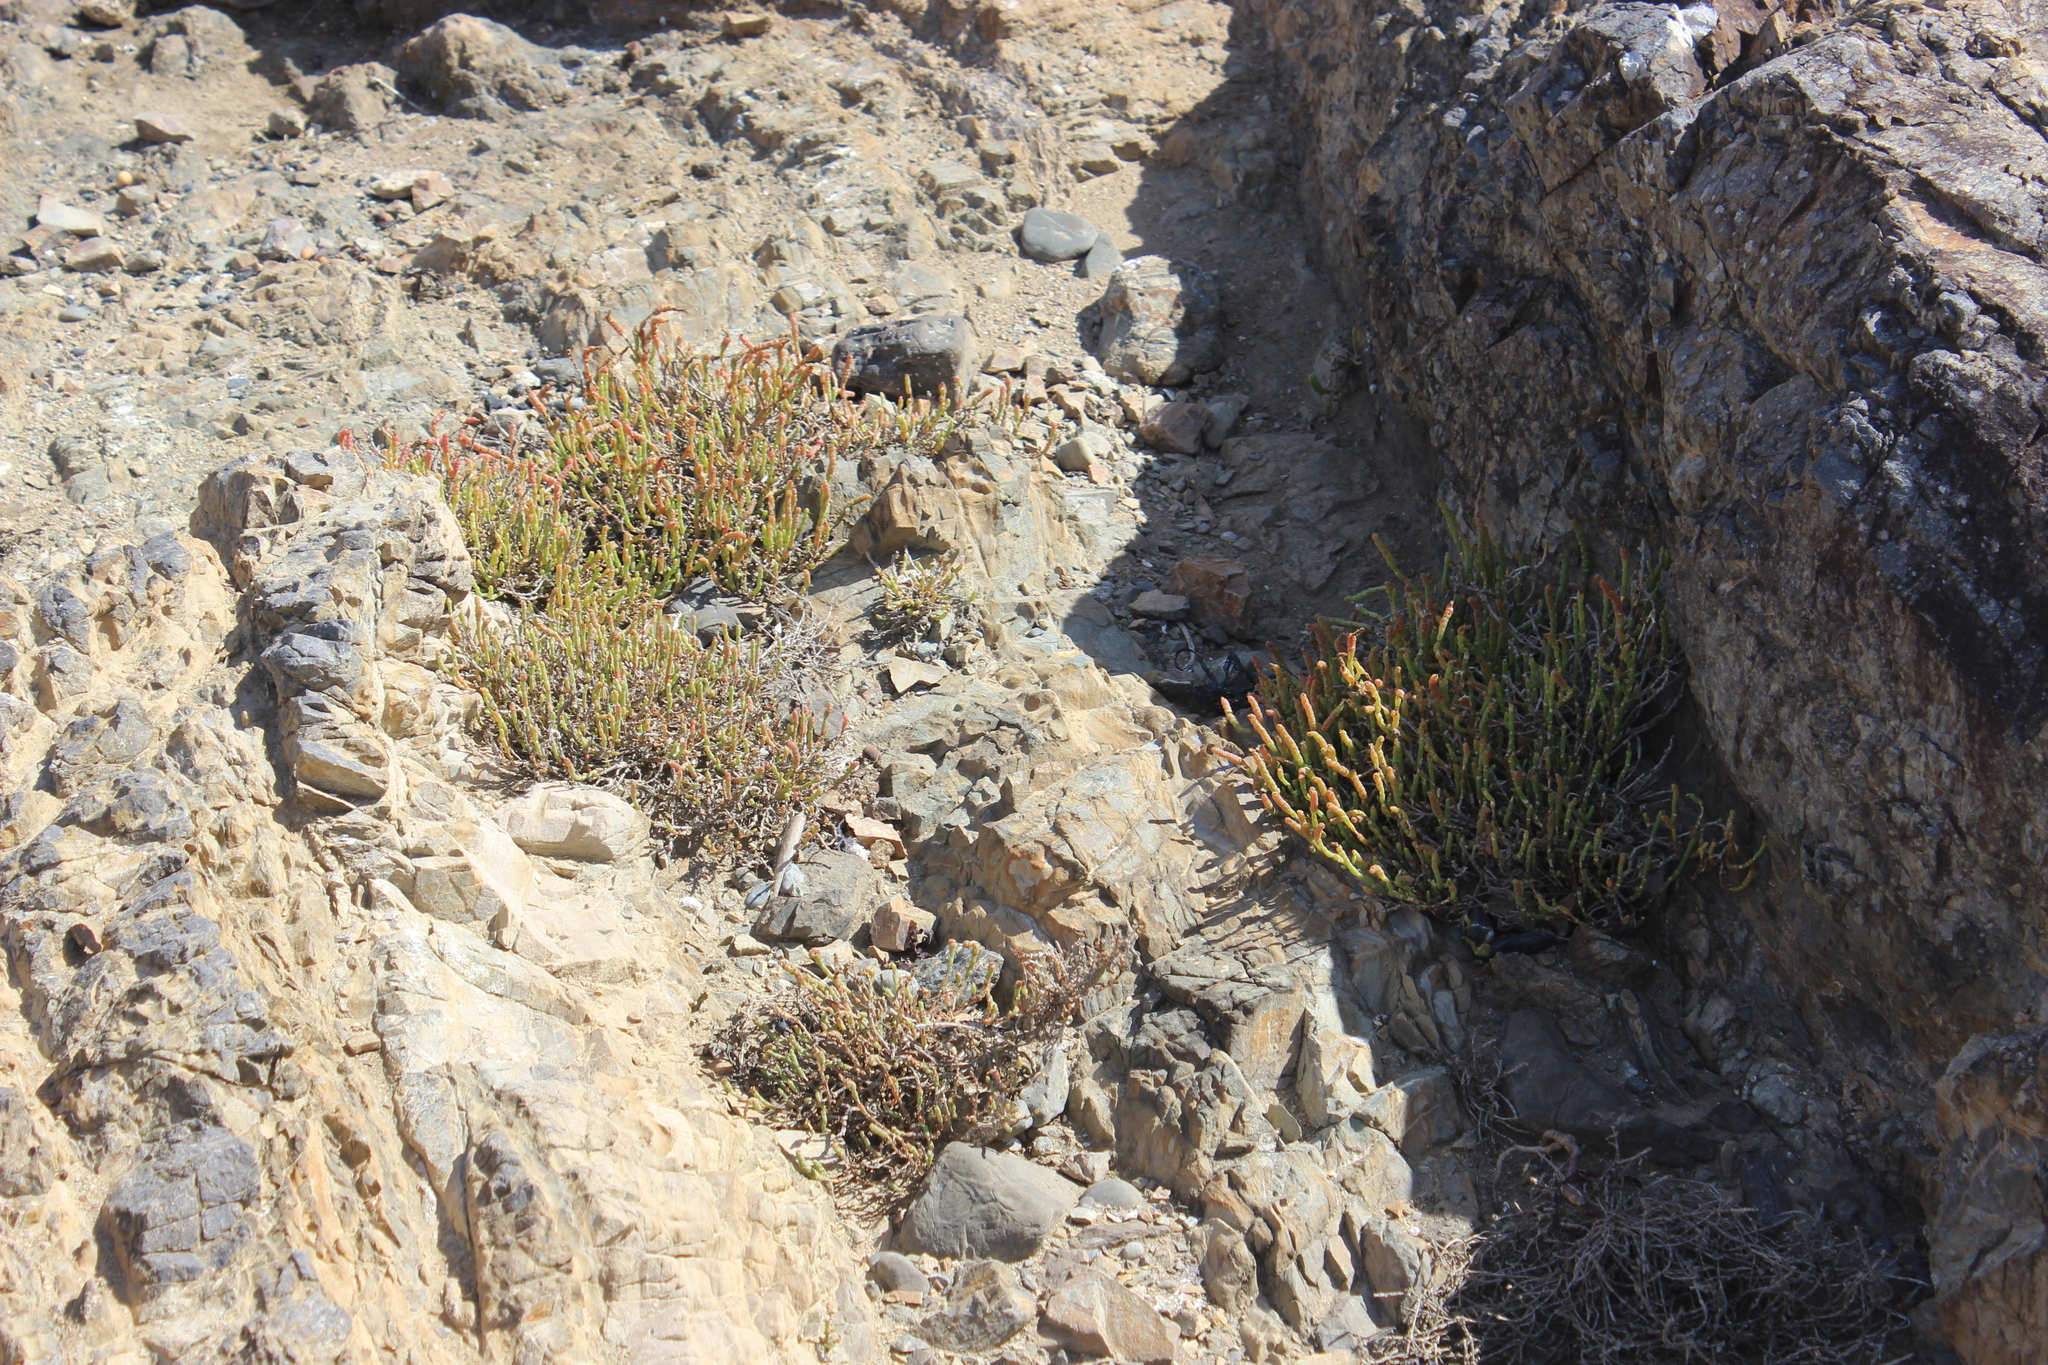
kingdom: Plantae
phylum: Tracheophyta
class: Magnoliopsida
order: Caryophyllales
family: Amaranthaceae
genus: Salicornia
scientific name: Salicornia quinqueflora
